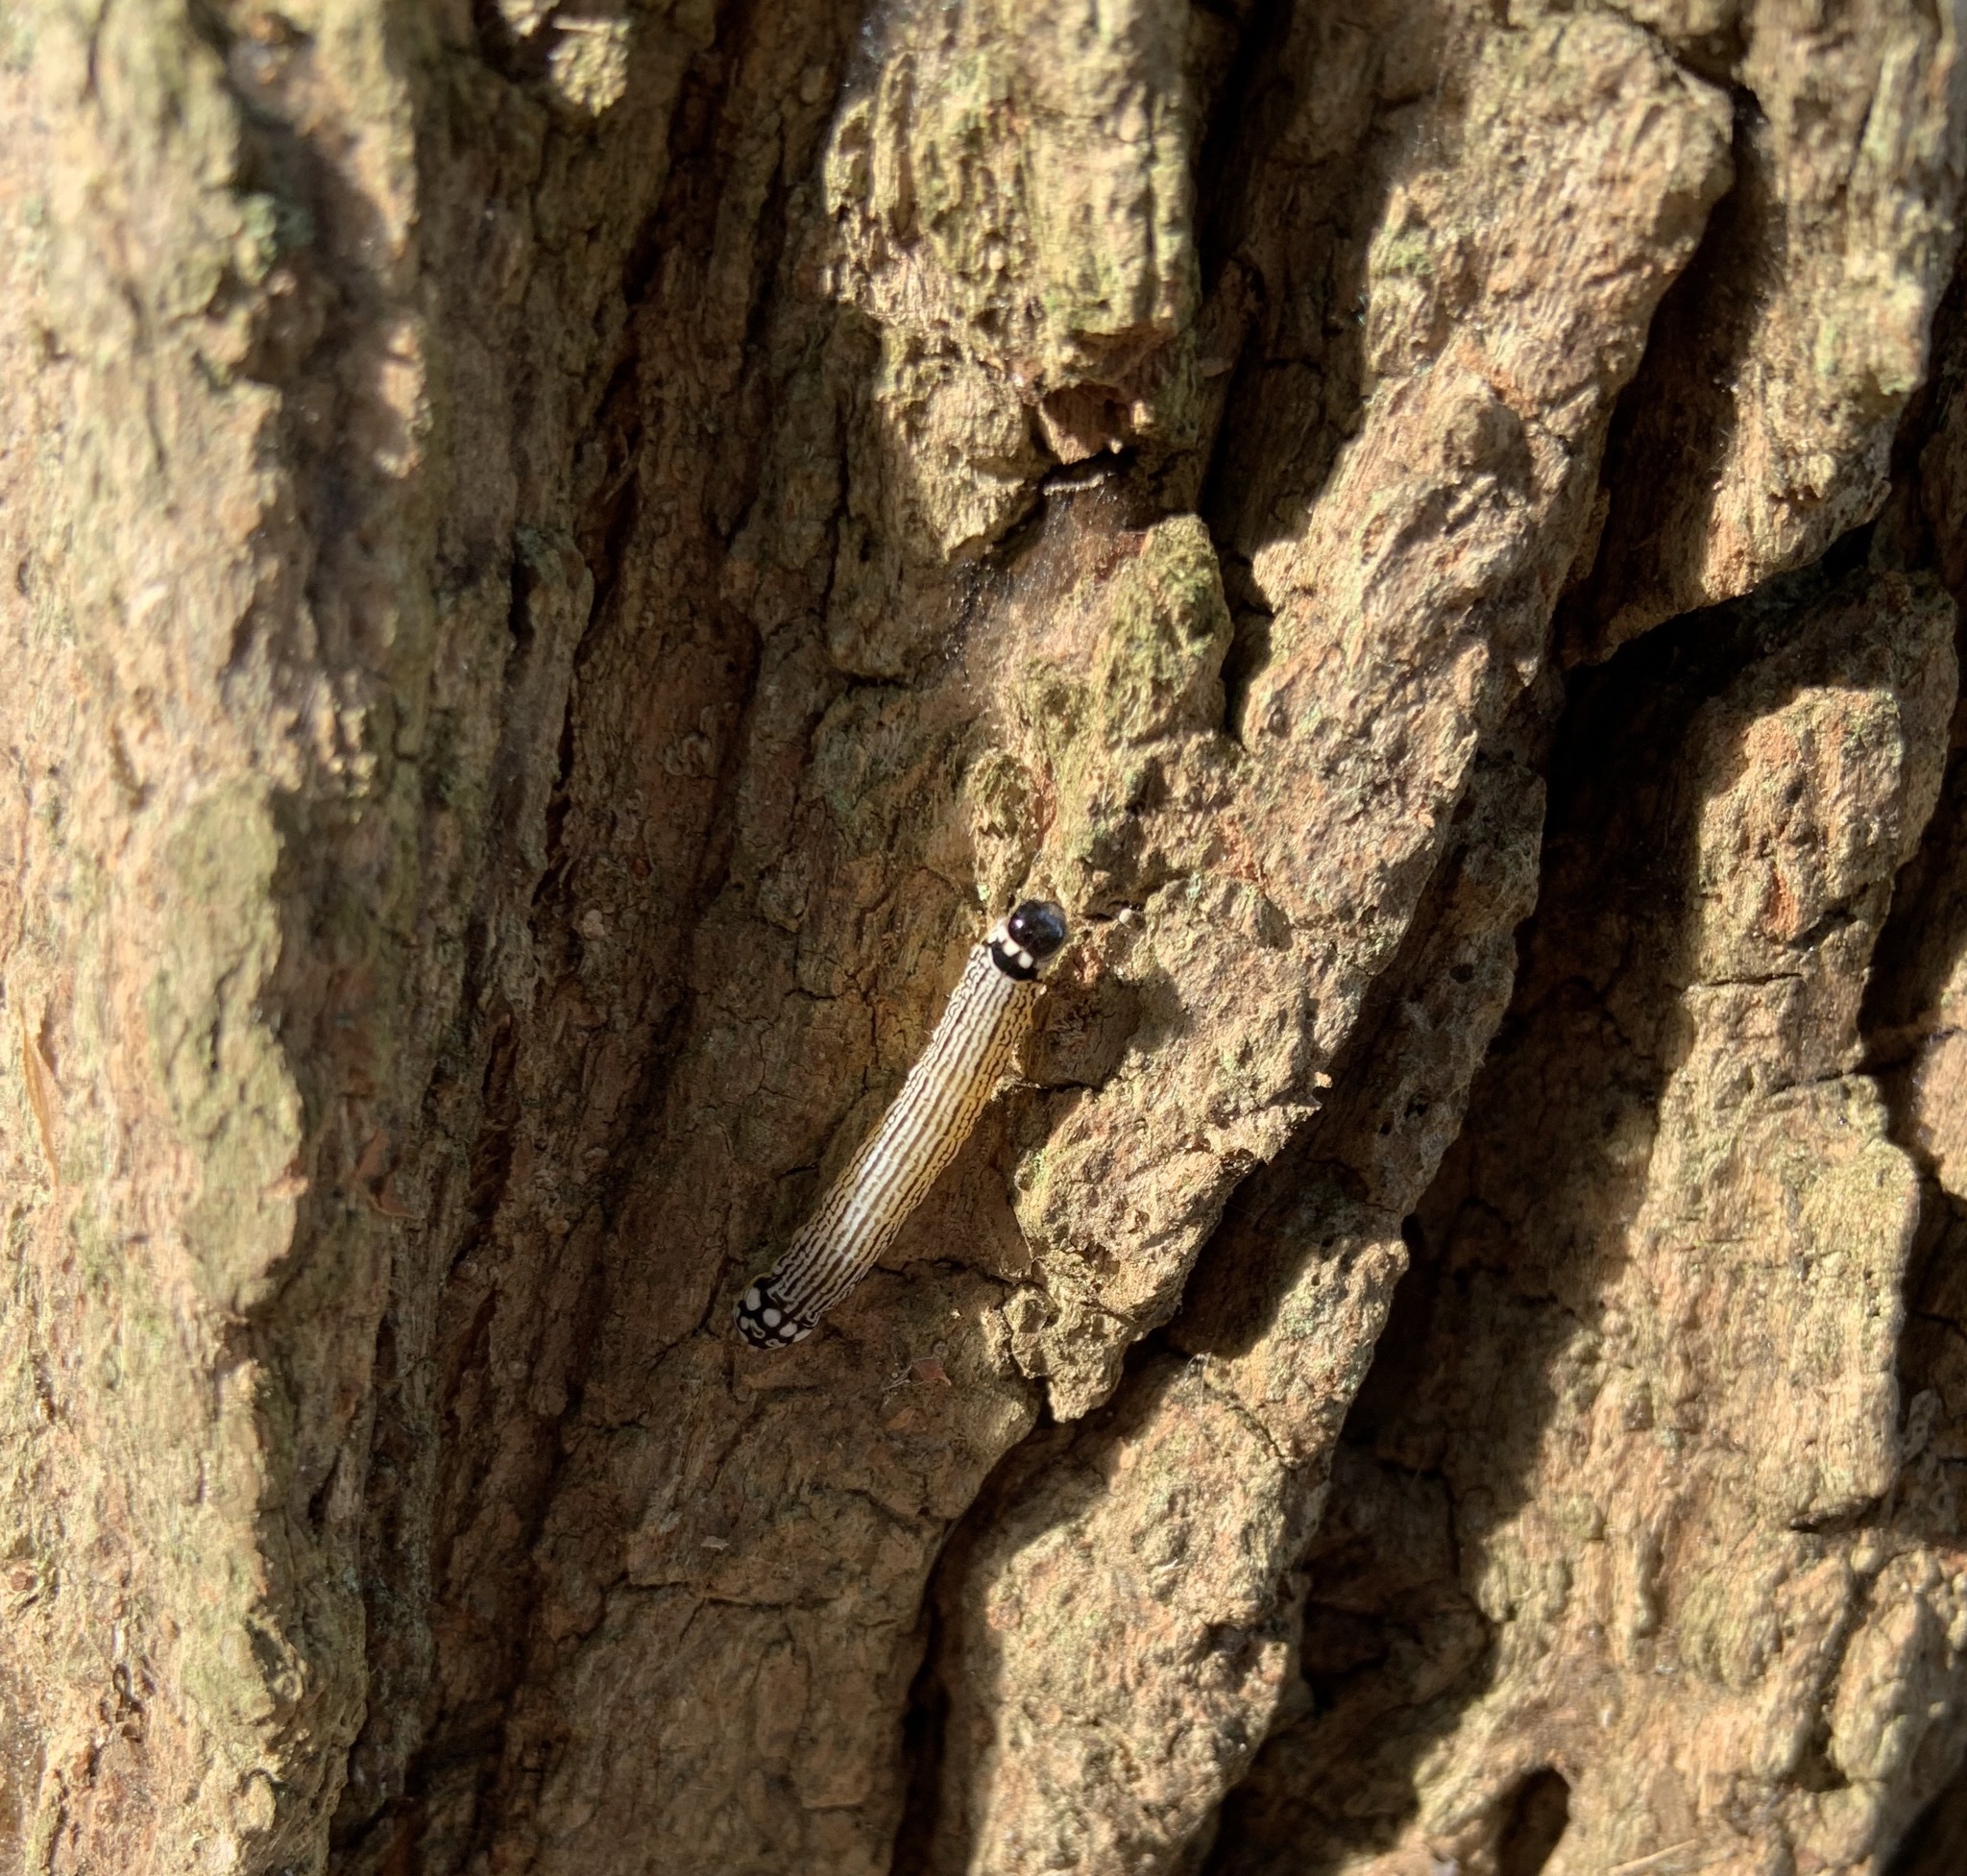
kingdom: Animalia
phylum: Arthropoda
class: Insecta
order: Lepidoptera
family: Noctuidae
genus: Phosphila
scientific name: Phosphila turbulenta
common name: Turbulent phosphila moth
